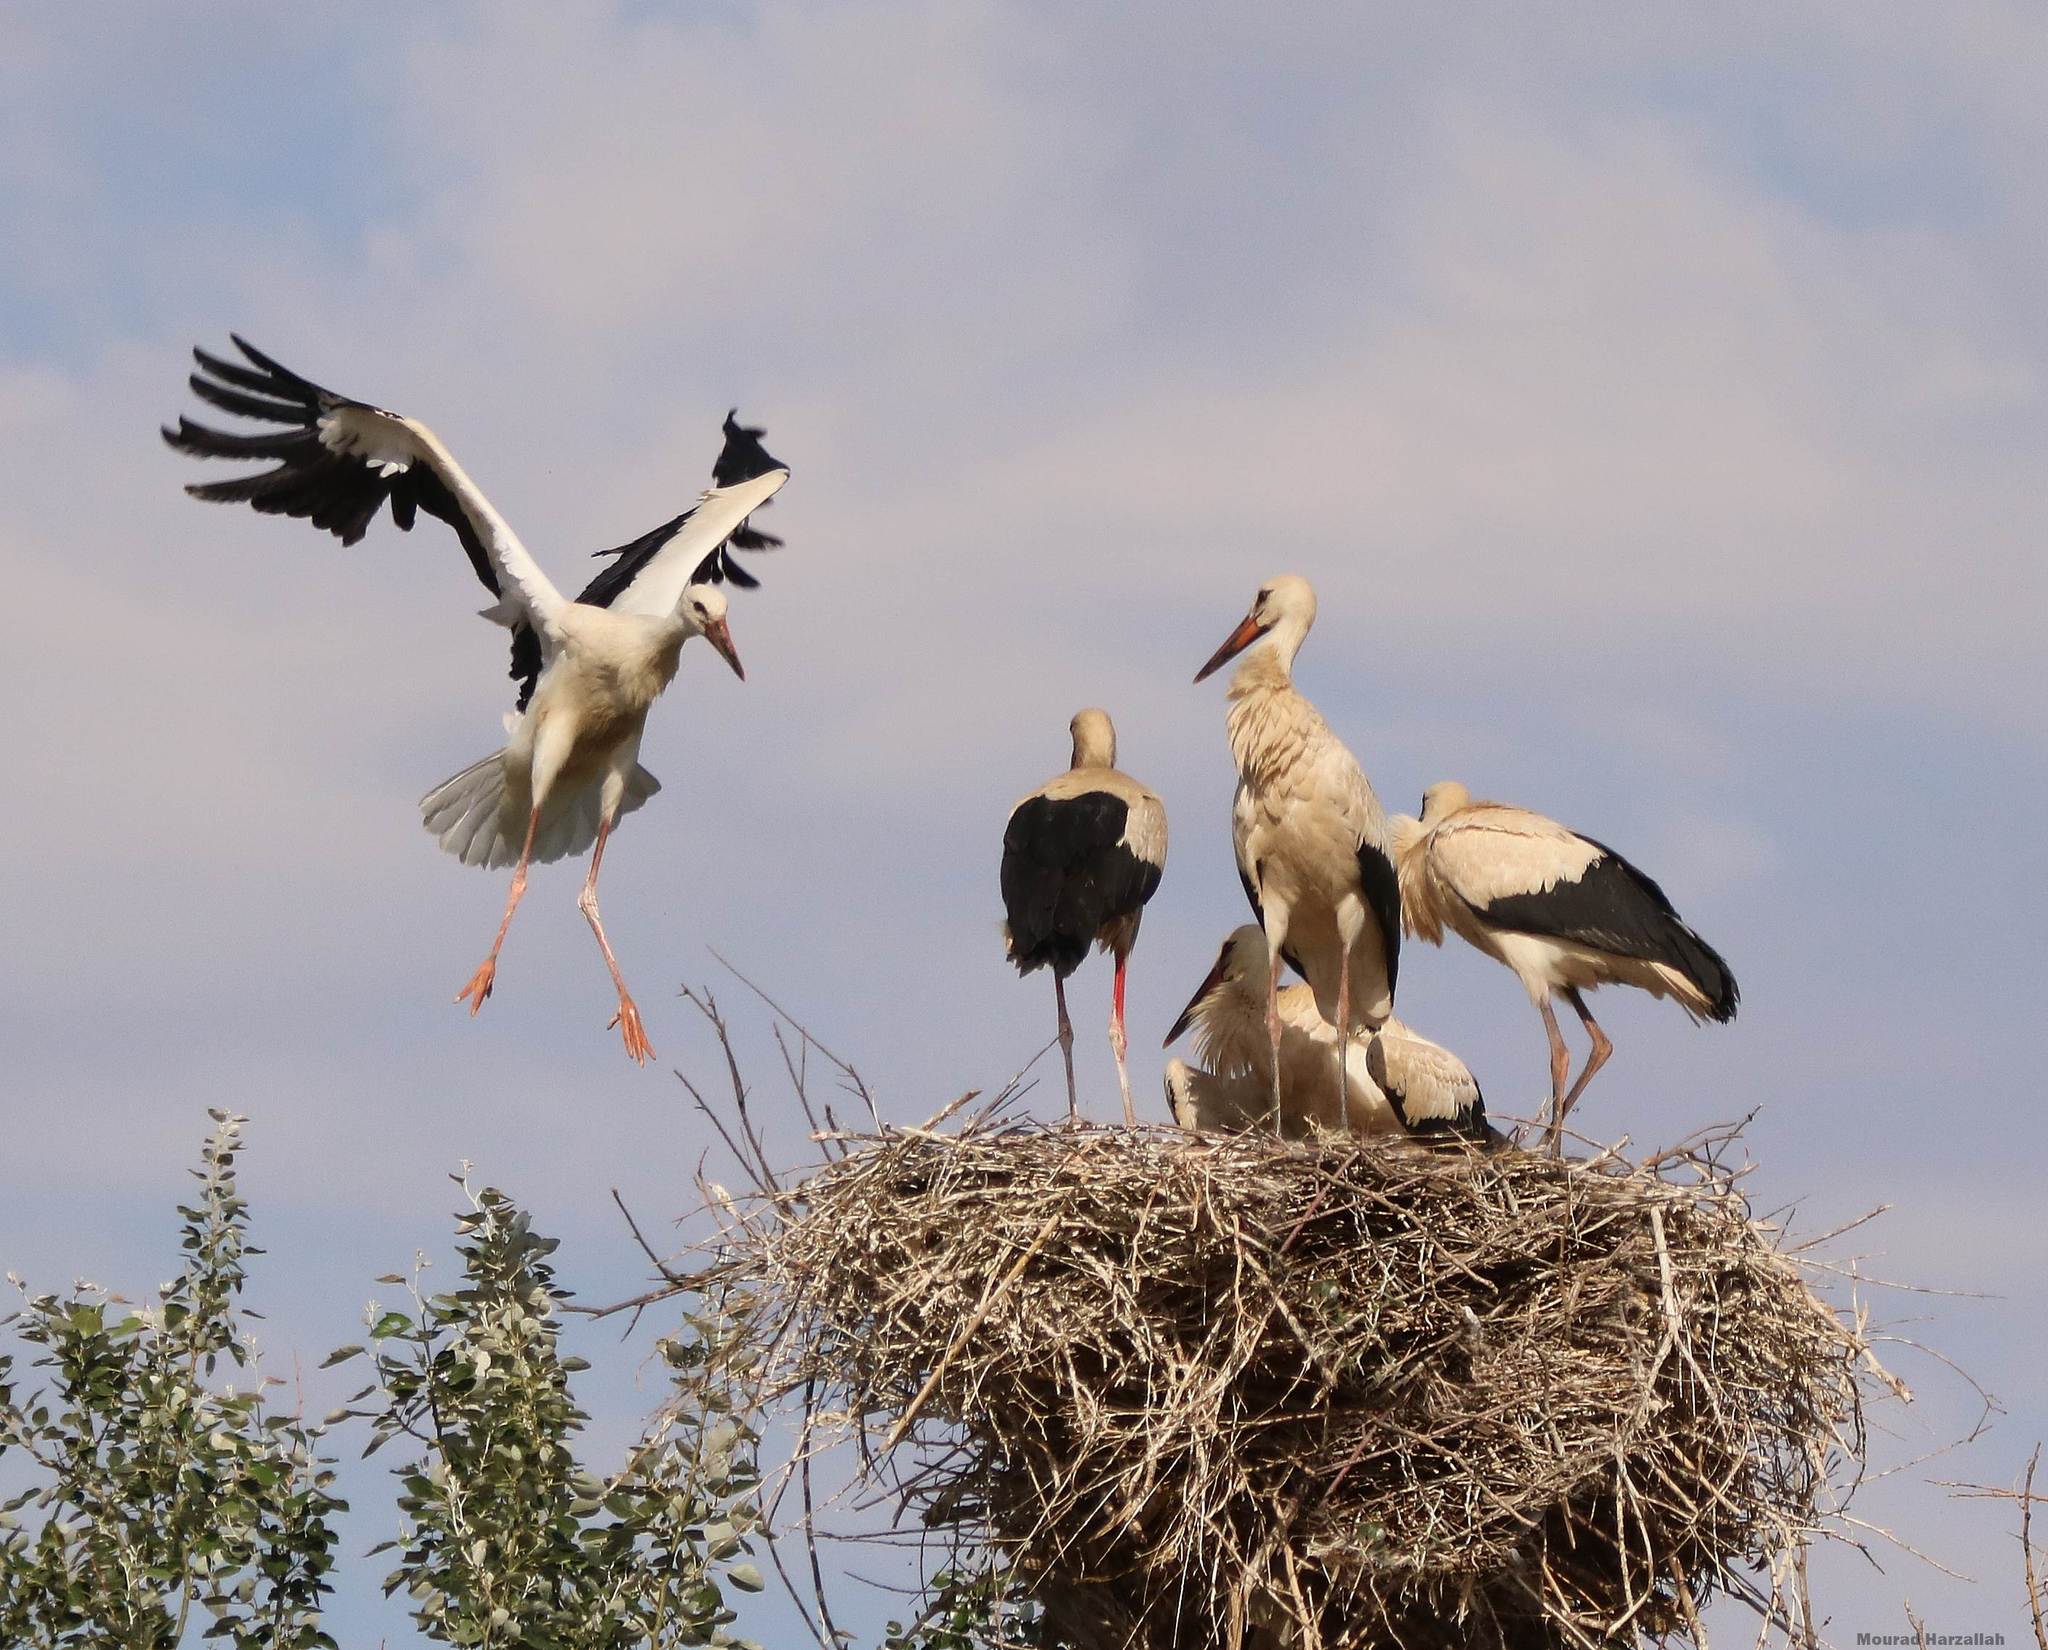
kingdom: Animalia
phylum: Chordata
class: Aves
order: Ciconiiformes
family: Ciconiidae
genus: Ciconia
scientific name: Ciconia ciconia
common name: White stork
